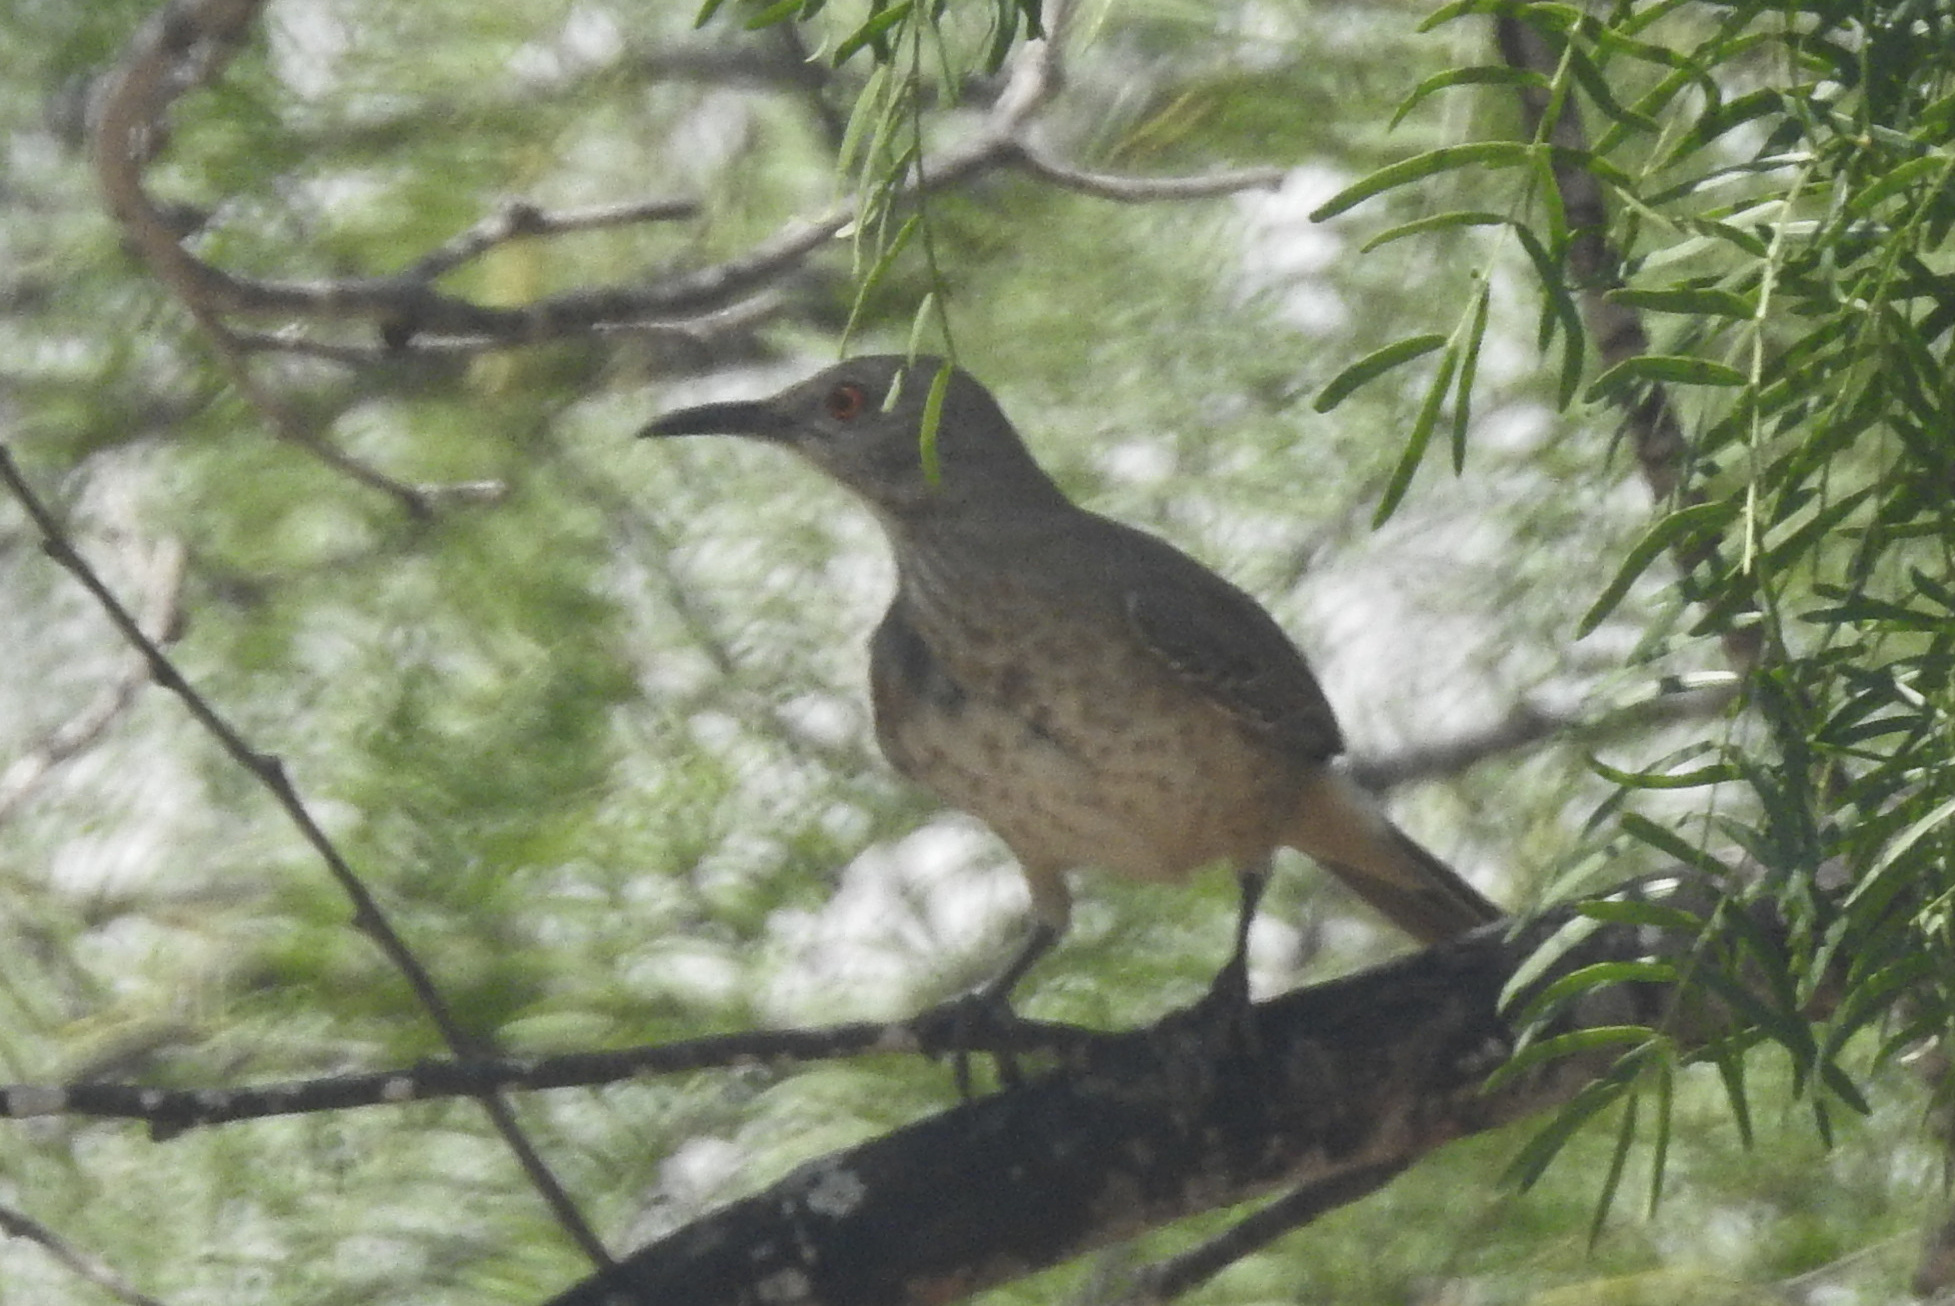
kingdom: Animalia
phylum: Chordata
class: Aves
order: Passeriformes
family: Mimidae
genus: Toxostoma
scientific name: Toxostoma curvirostre
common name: Curve-billed thrasher
